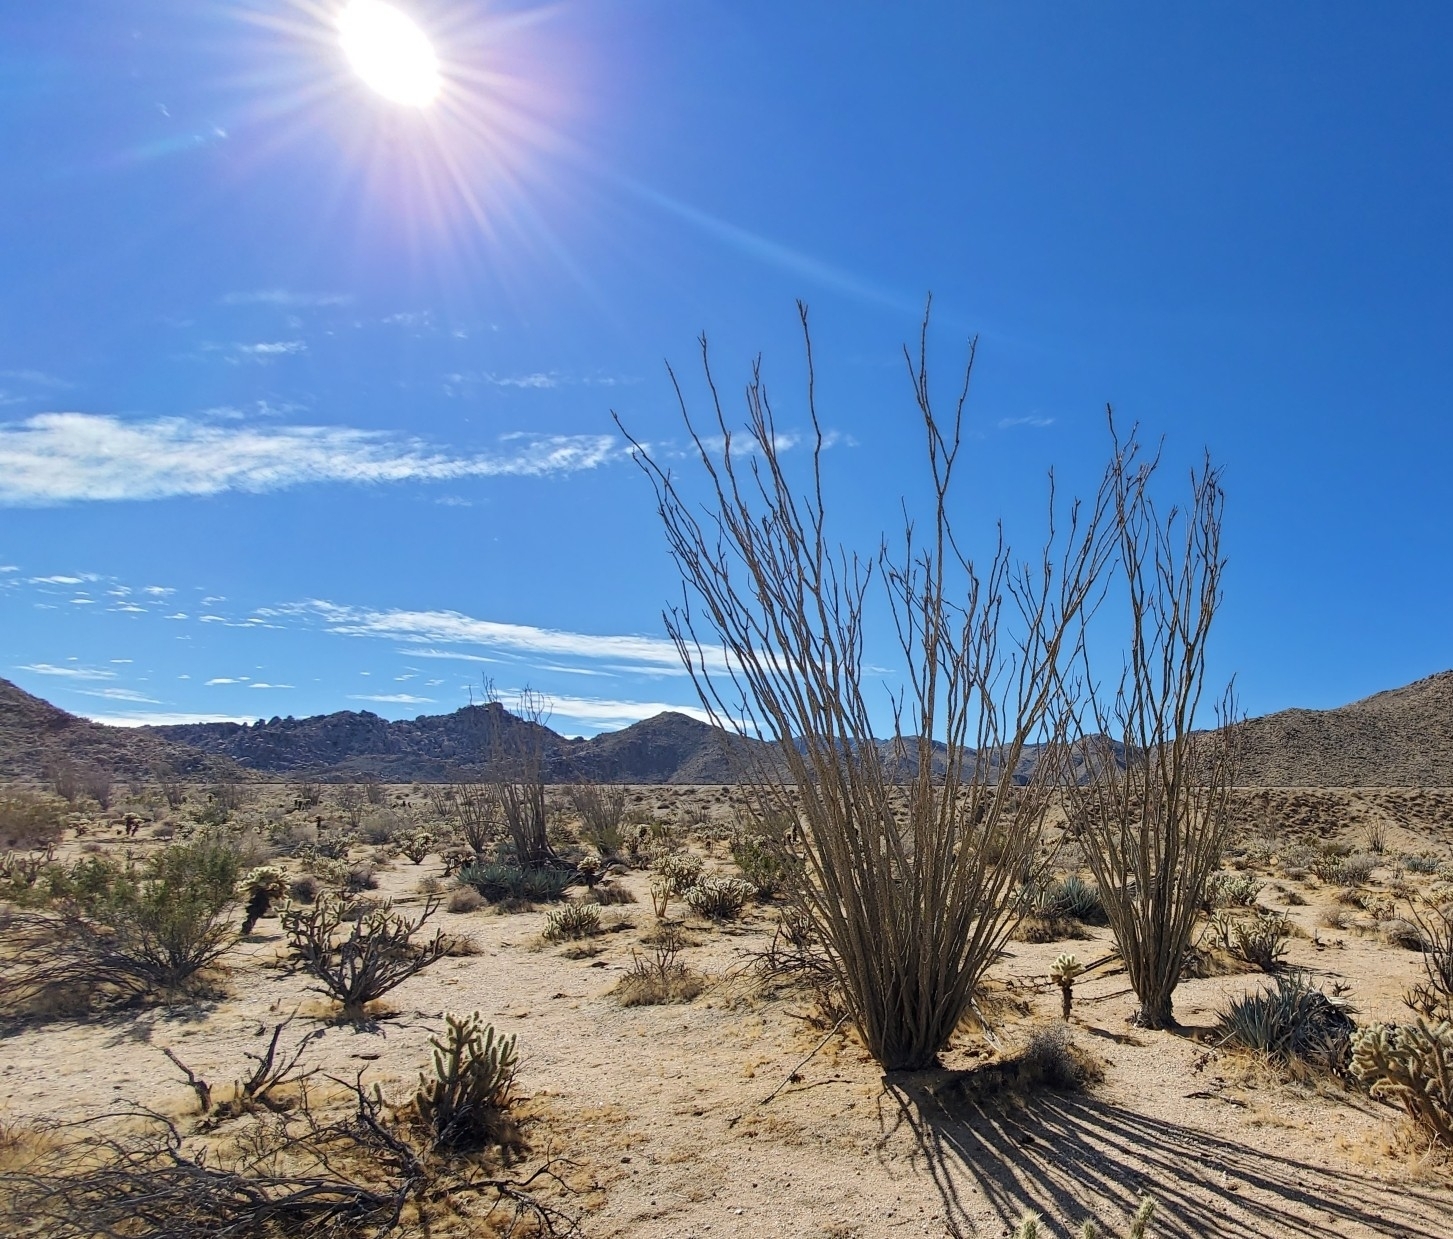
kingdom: Plantae
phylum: Tracheophyta
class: Magnoliopsida
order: Ericales
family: Fouquieriaceae
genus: Fouquieria
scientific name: Fouquieria splendens
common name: Vine-cactus
